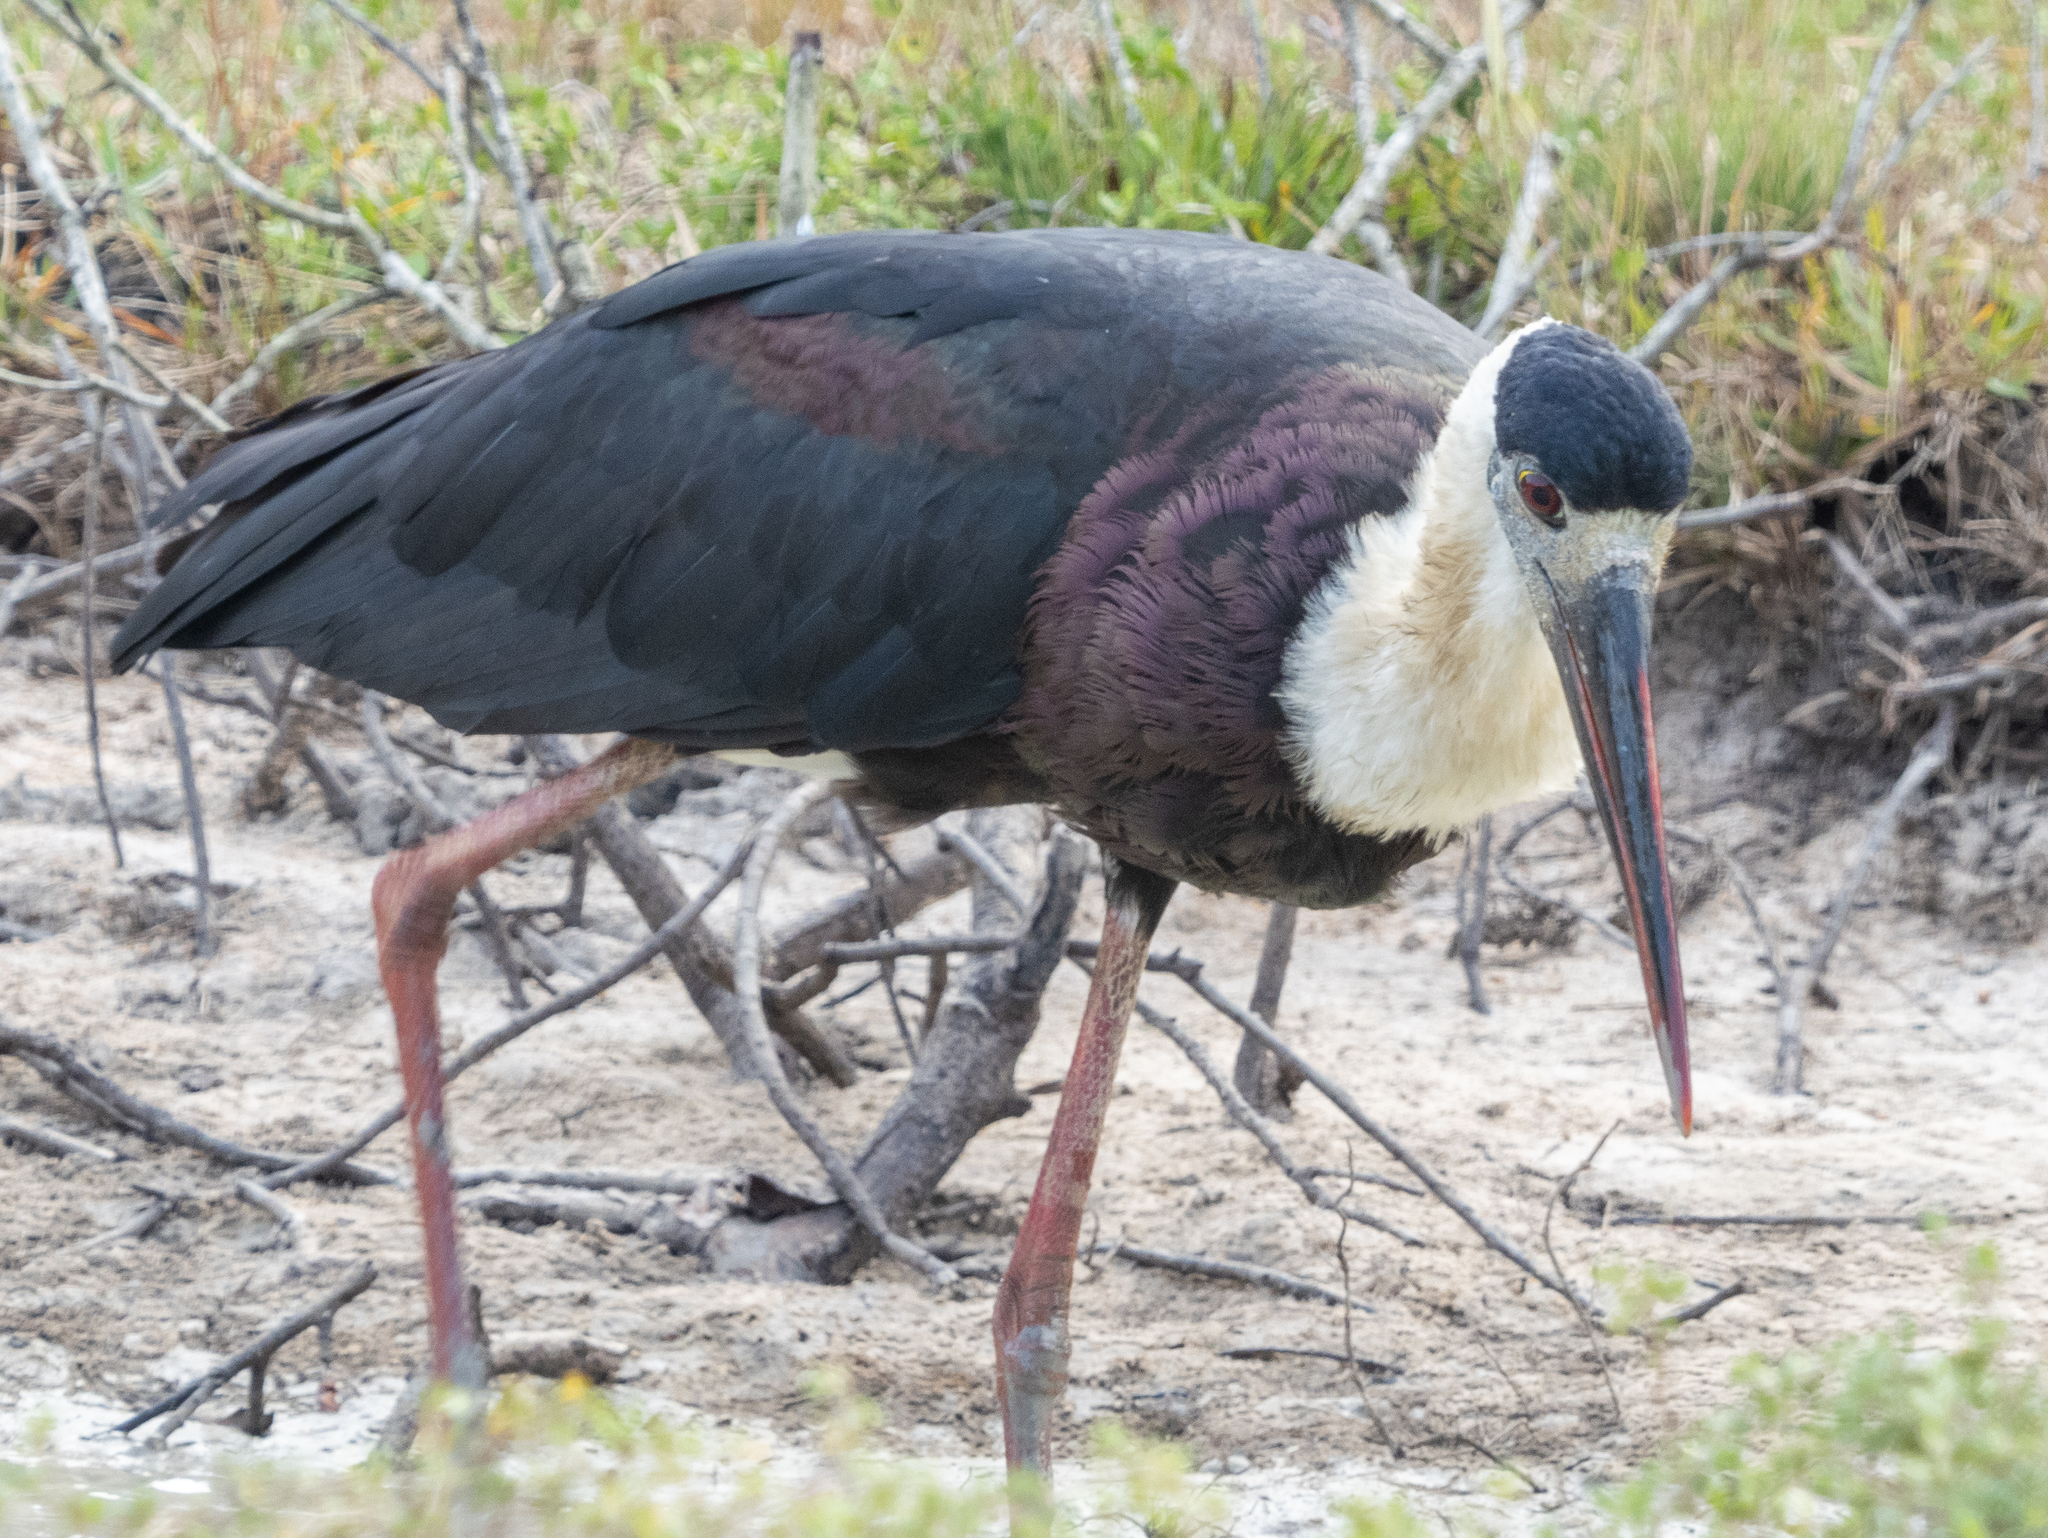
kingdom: Animalia
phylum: Chordata
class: Aves
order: Ciconiiformes
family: Ciconiidae
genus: Ciconia
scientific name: Ciconia episcopus
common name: Woolly-necked stork
